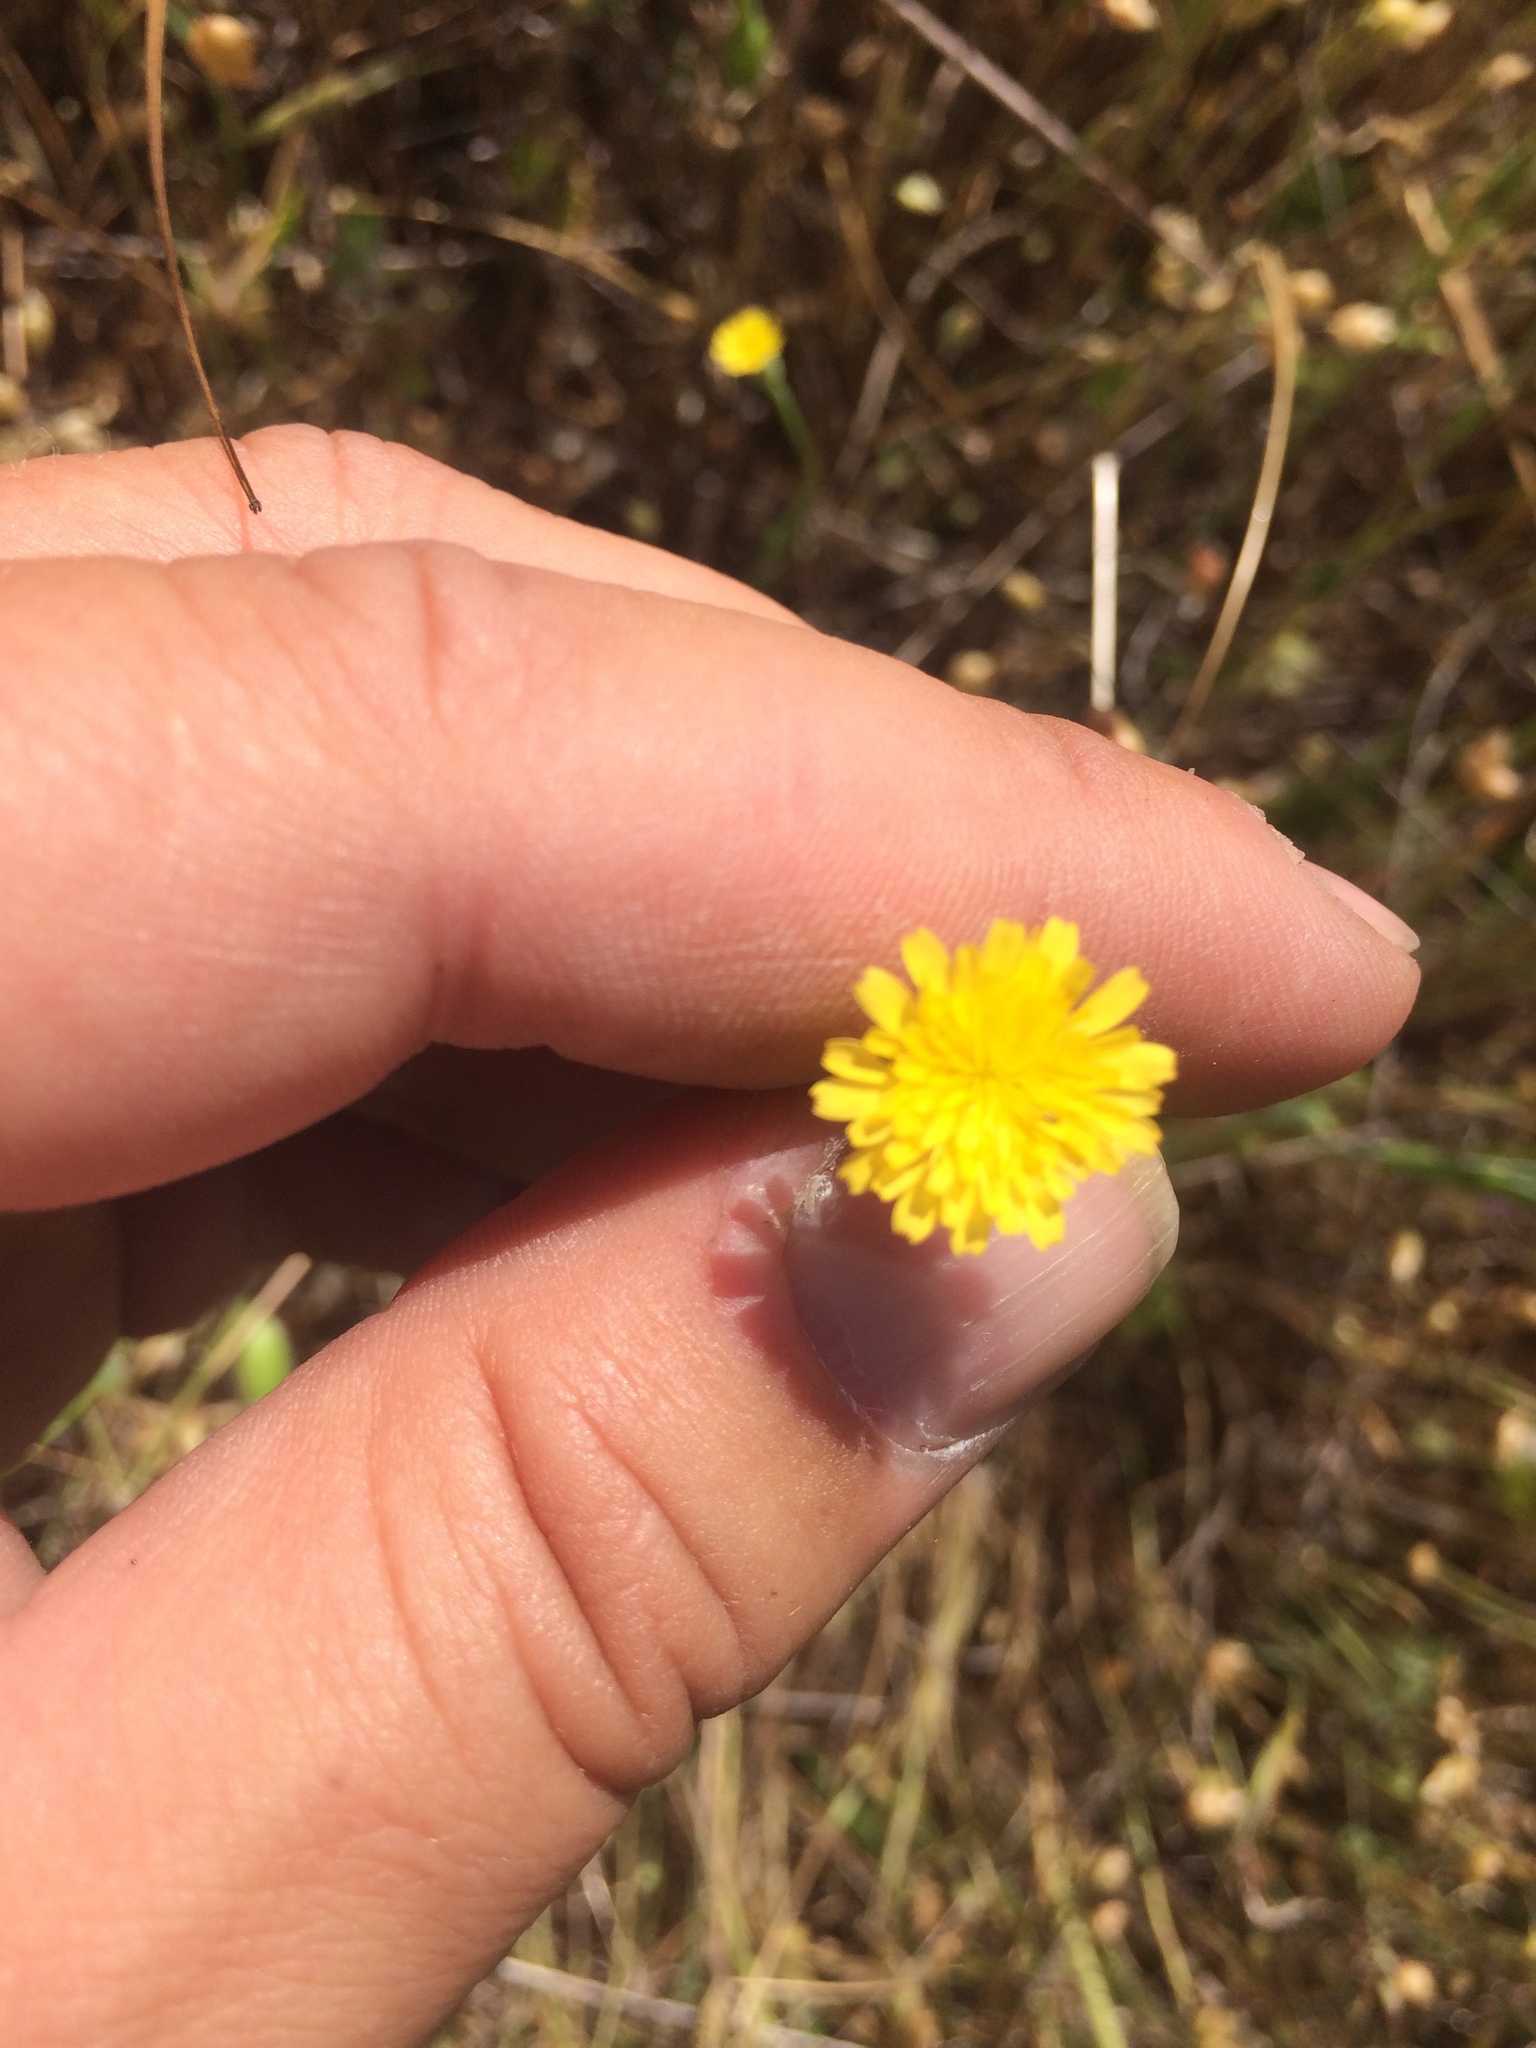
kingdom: Plantae
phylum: Tracheophyta
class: Magnoliopsida
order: Asterales
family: Asteraceae
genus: Hypochaeris
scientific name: Hypochaeris glabra
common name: Smooth catsear
